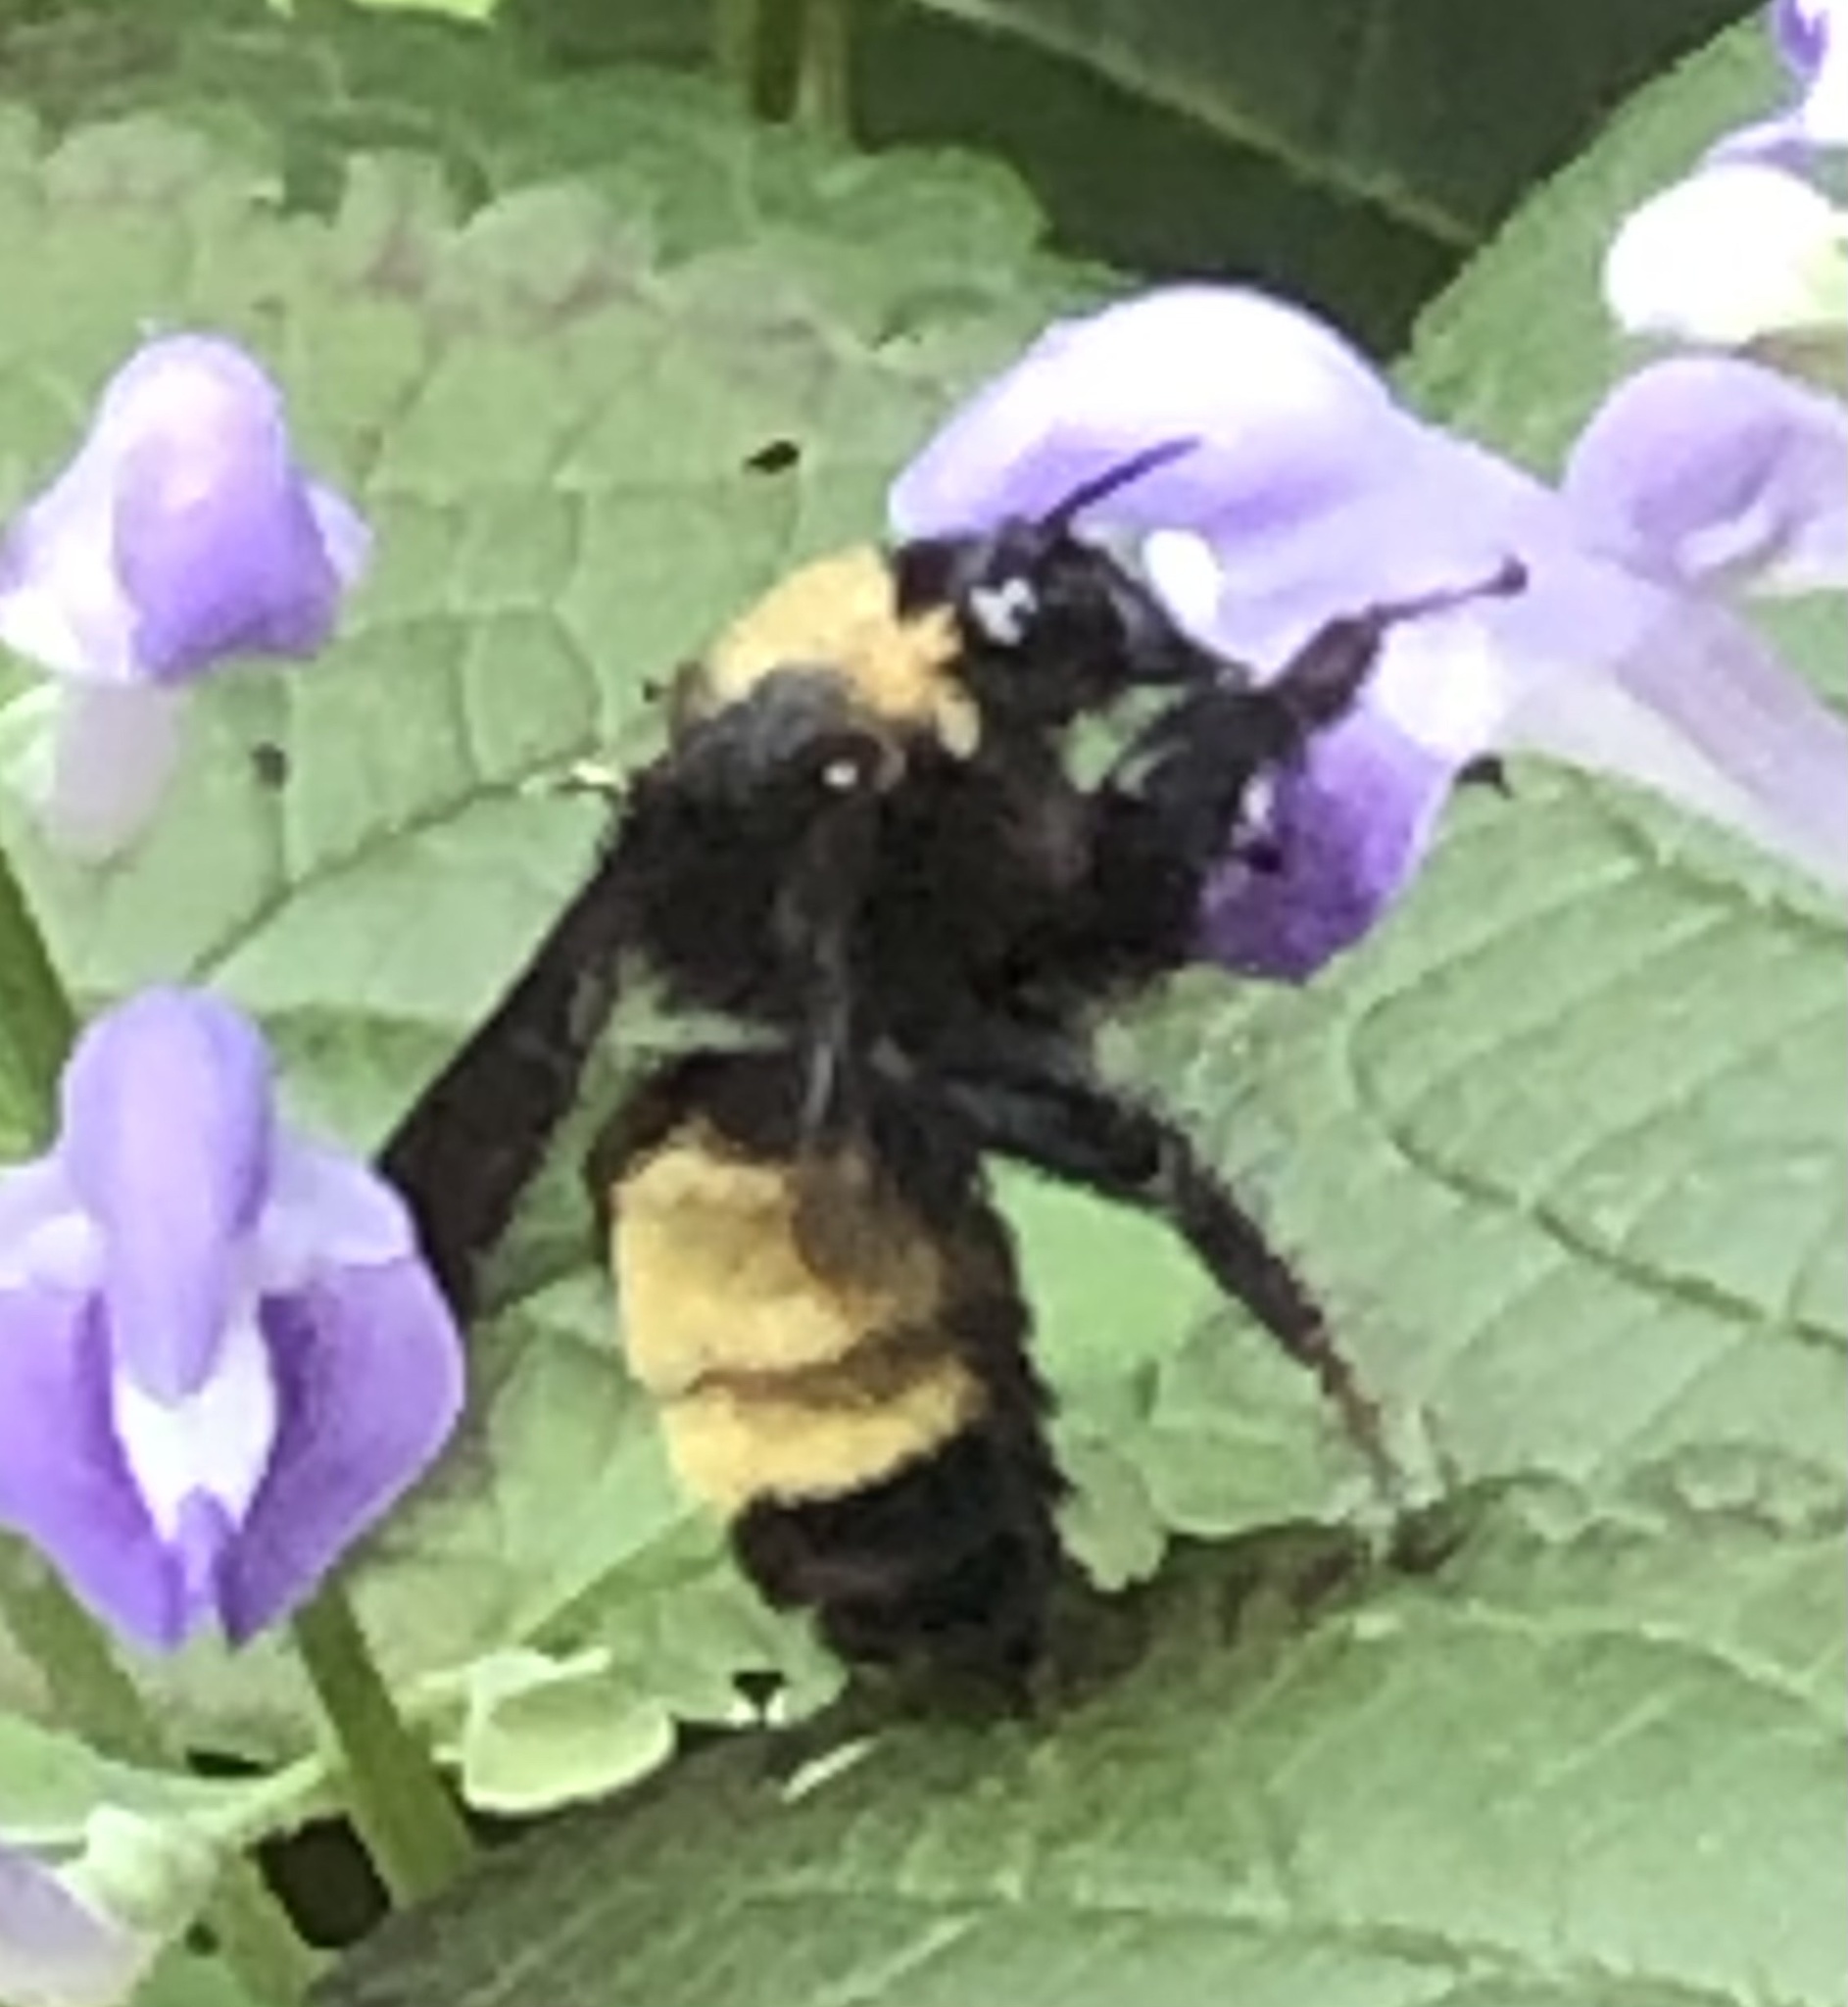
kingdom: Animalia
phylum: Arthropoda
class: Insecta
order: Hymenoptera
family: Apidae
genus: Bombus
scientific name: Bombus pensylvanicus
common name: Bumble bee
